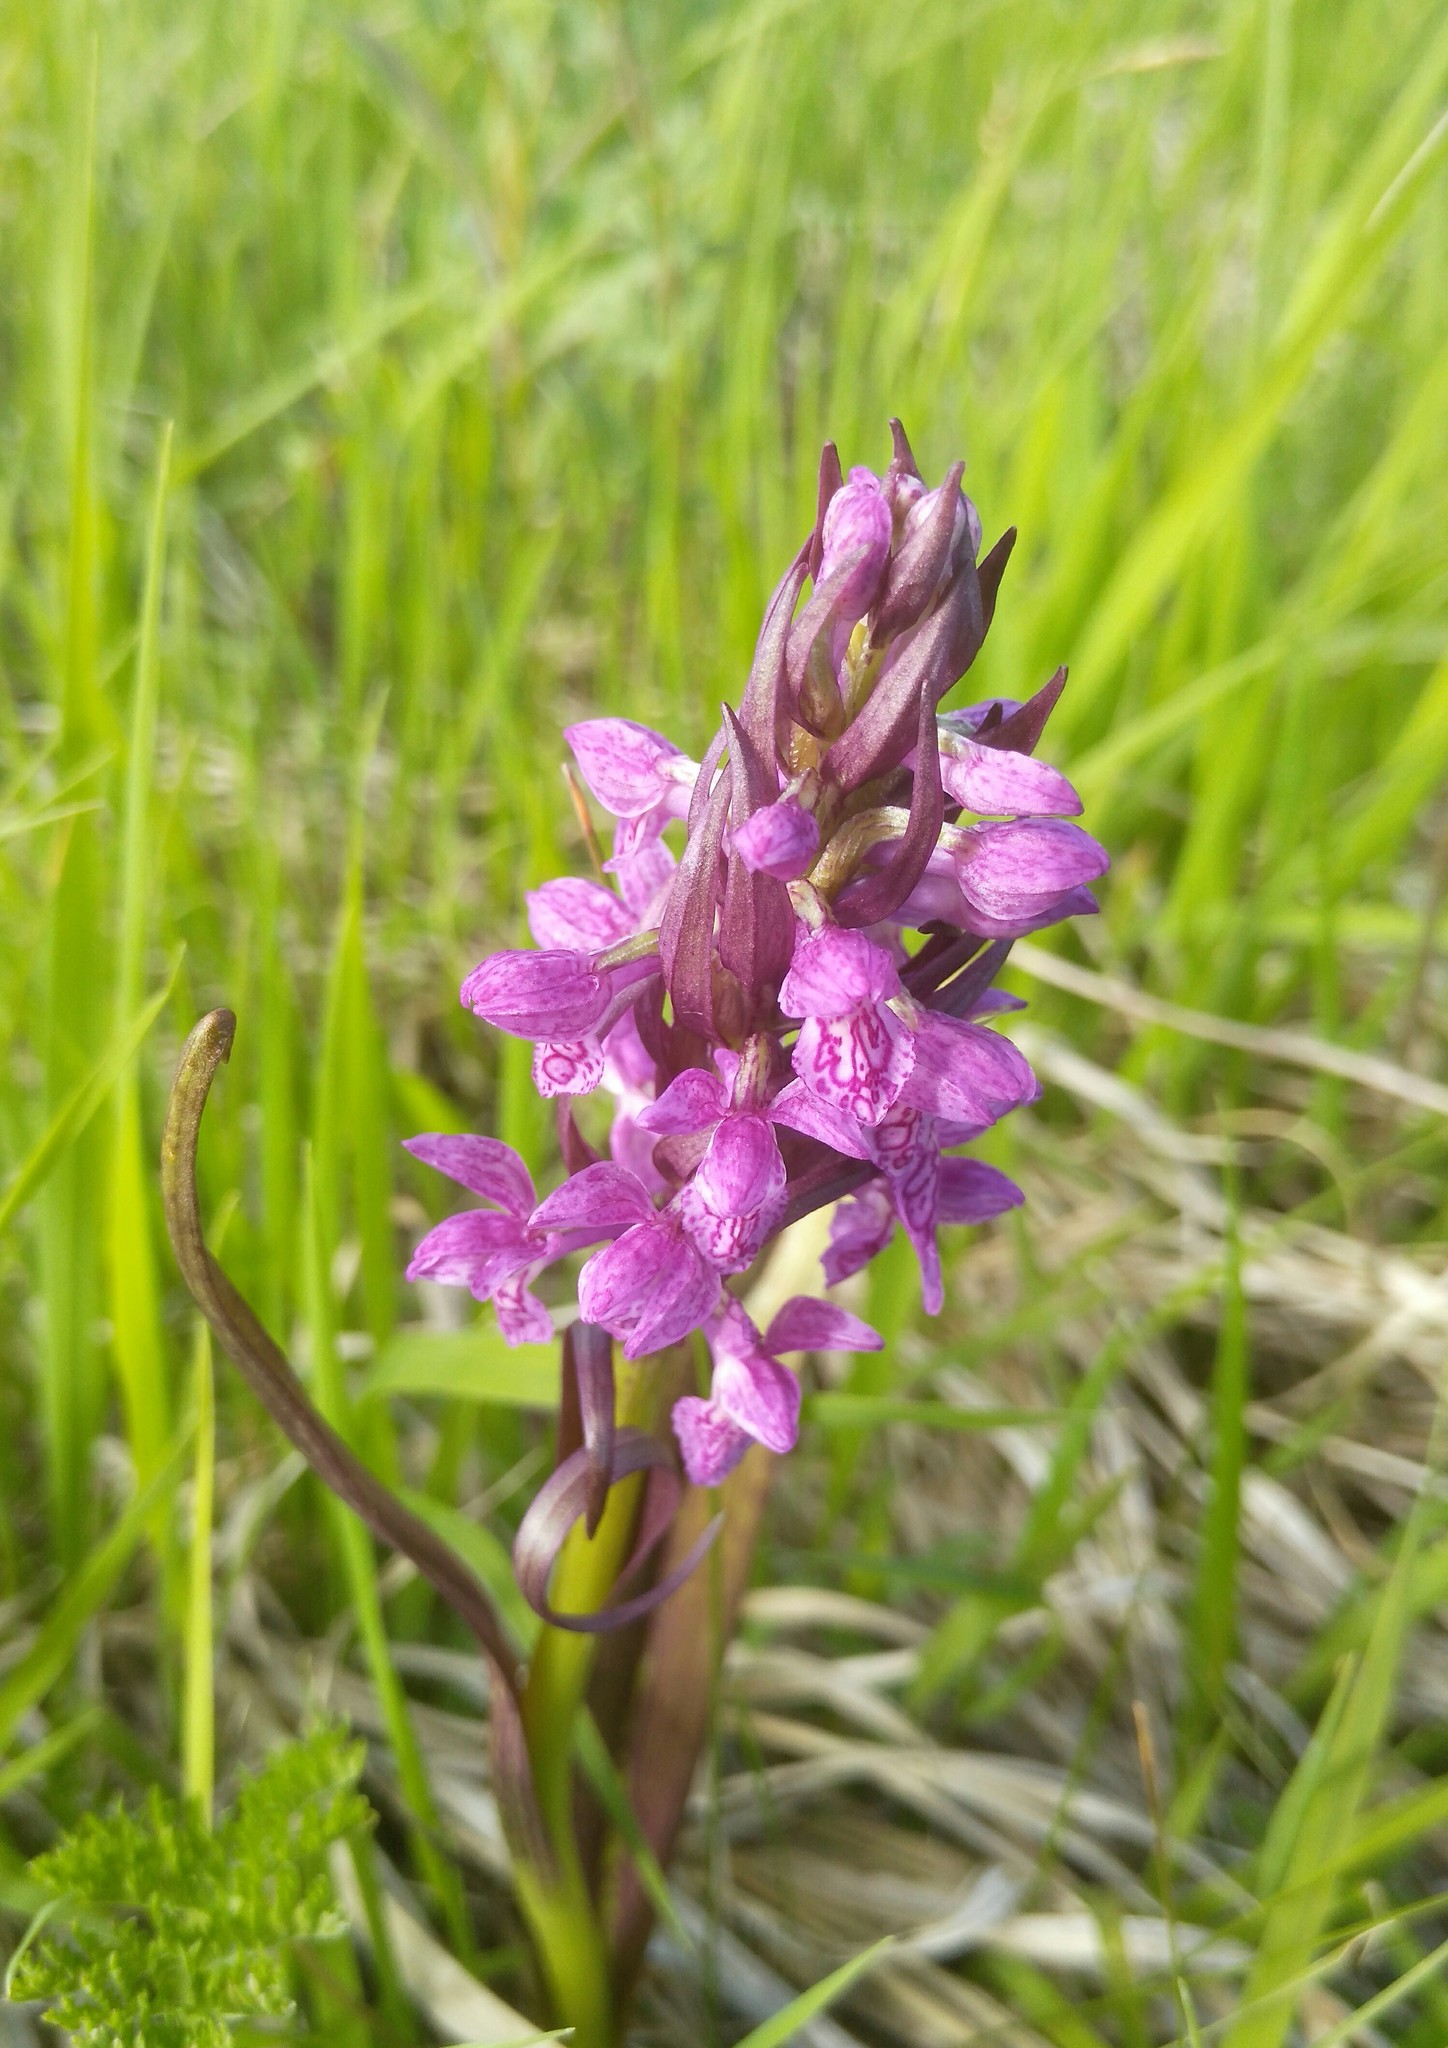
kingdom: Plantae
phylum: Tracheophyta
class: Liliopsida
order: Asparagales
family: Orchidaceae
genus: Dactylorhiza
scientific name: Dactylorhiza incarnata
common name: Early marsh-orchid
